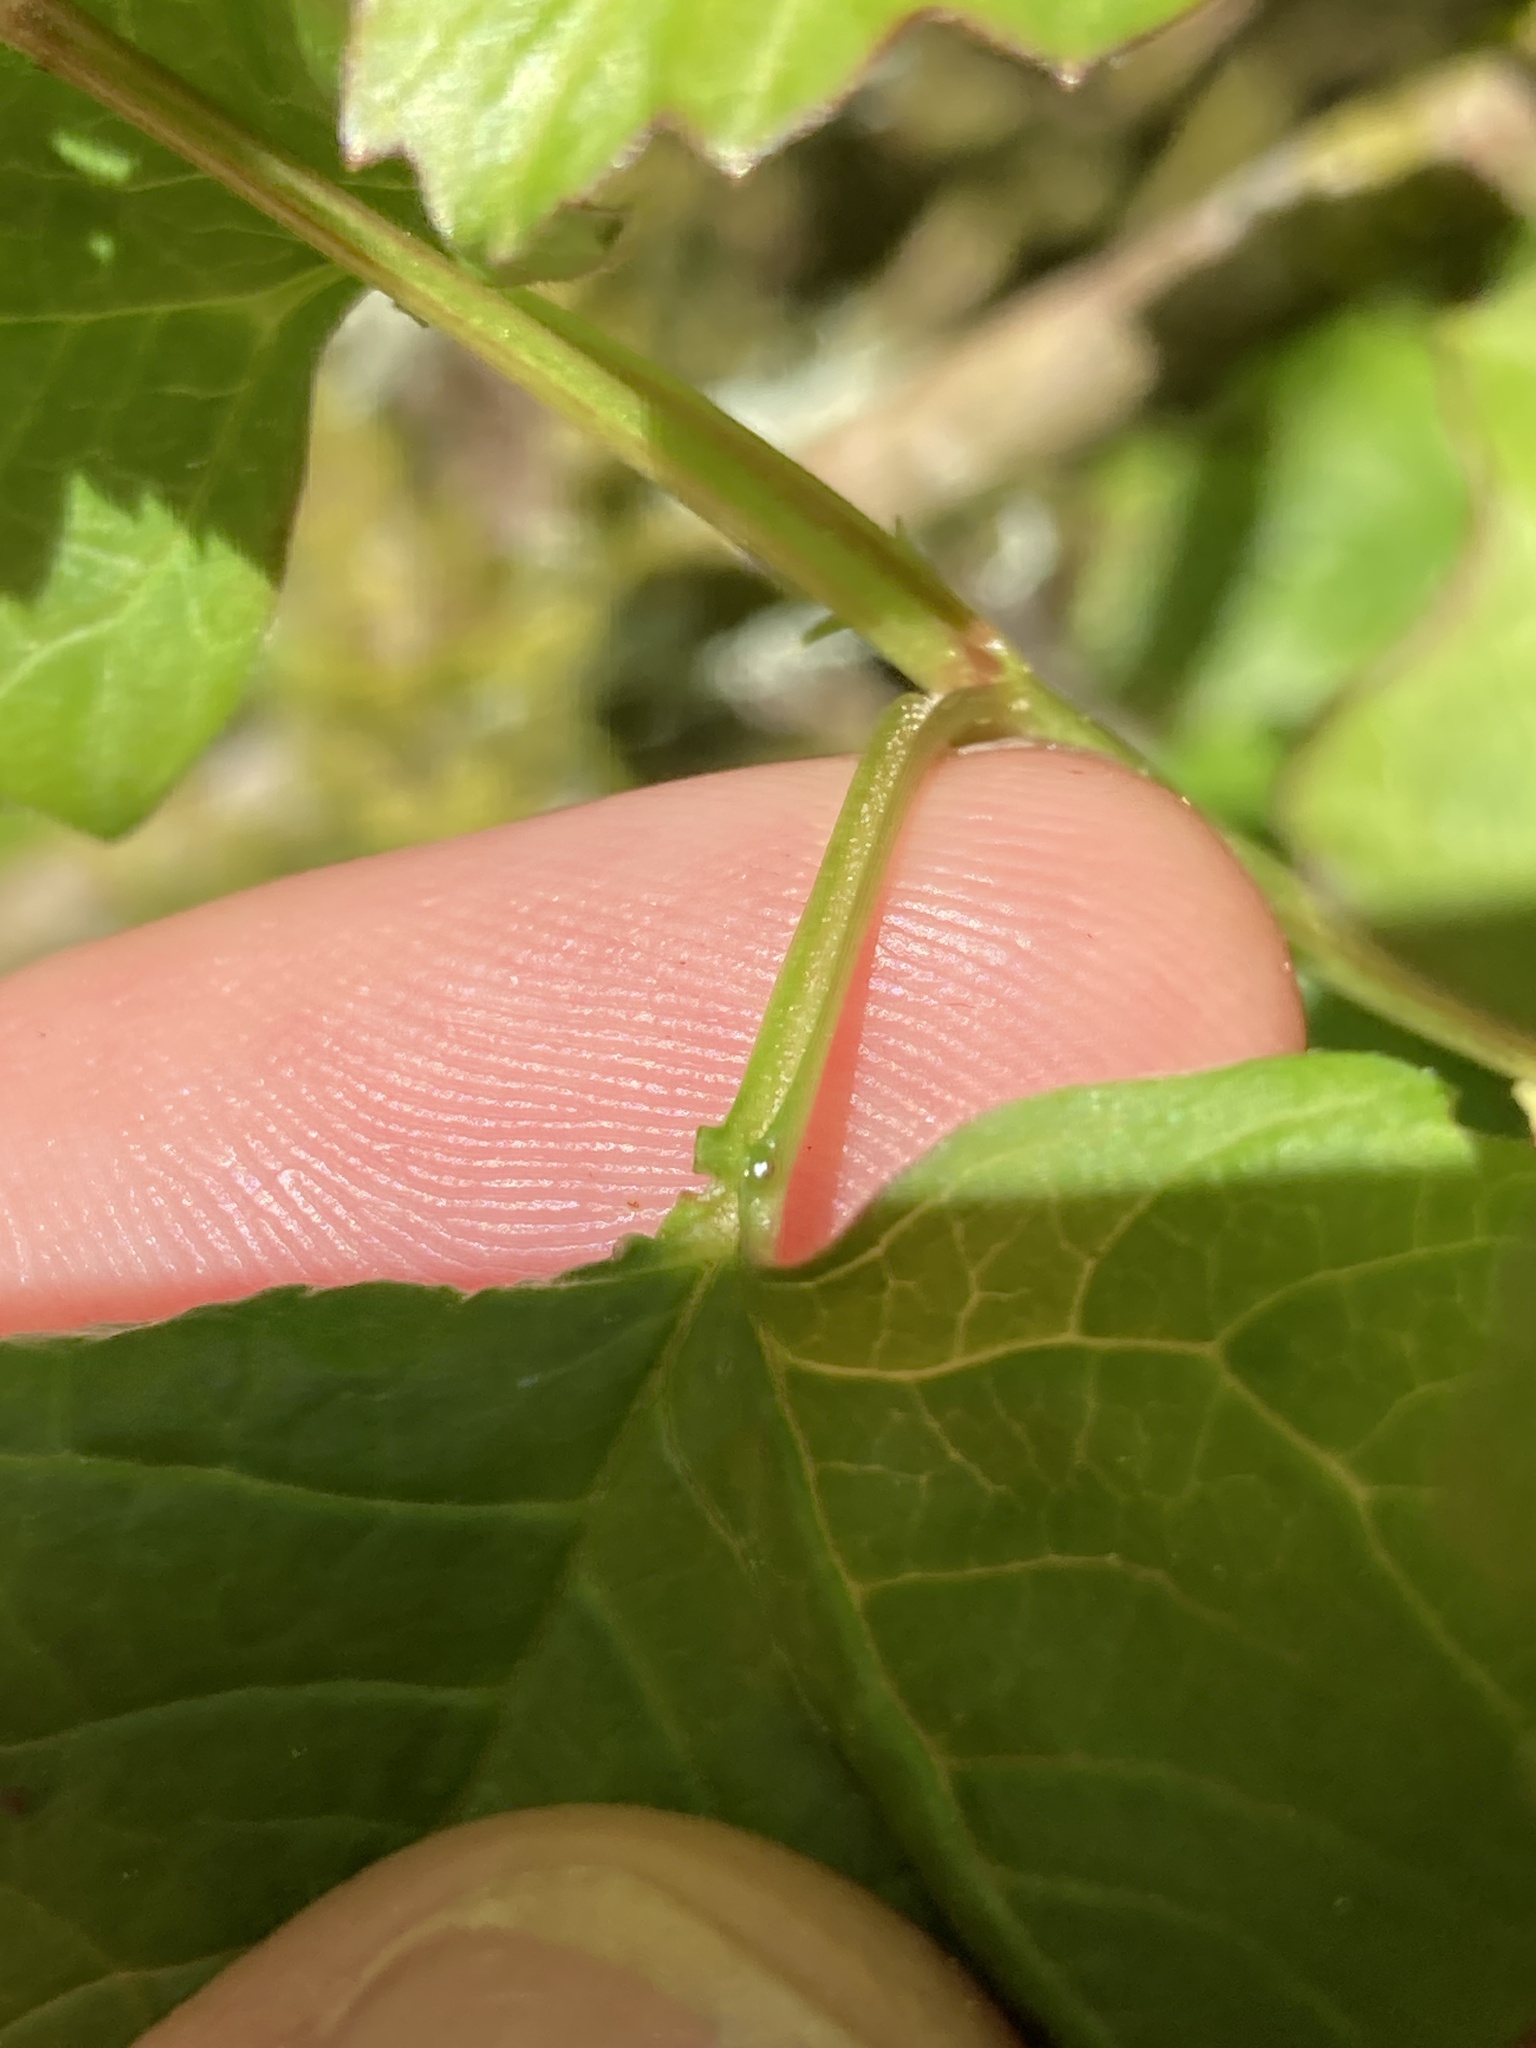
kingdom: Plantae
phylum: Tracheophyta
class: Magnoliopsida
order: Dipsacales
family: Viburnaceae
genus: Viburnum
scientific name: Viburnum opulus
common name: Guelder-rose
